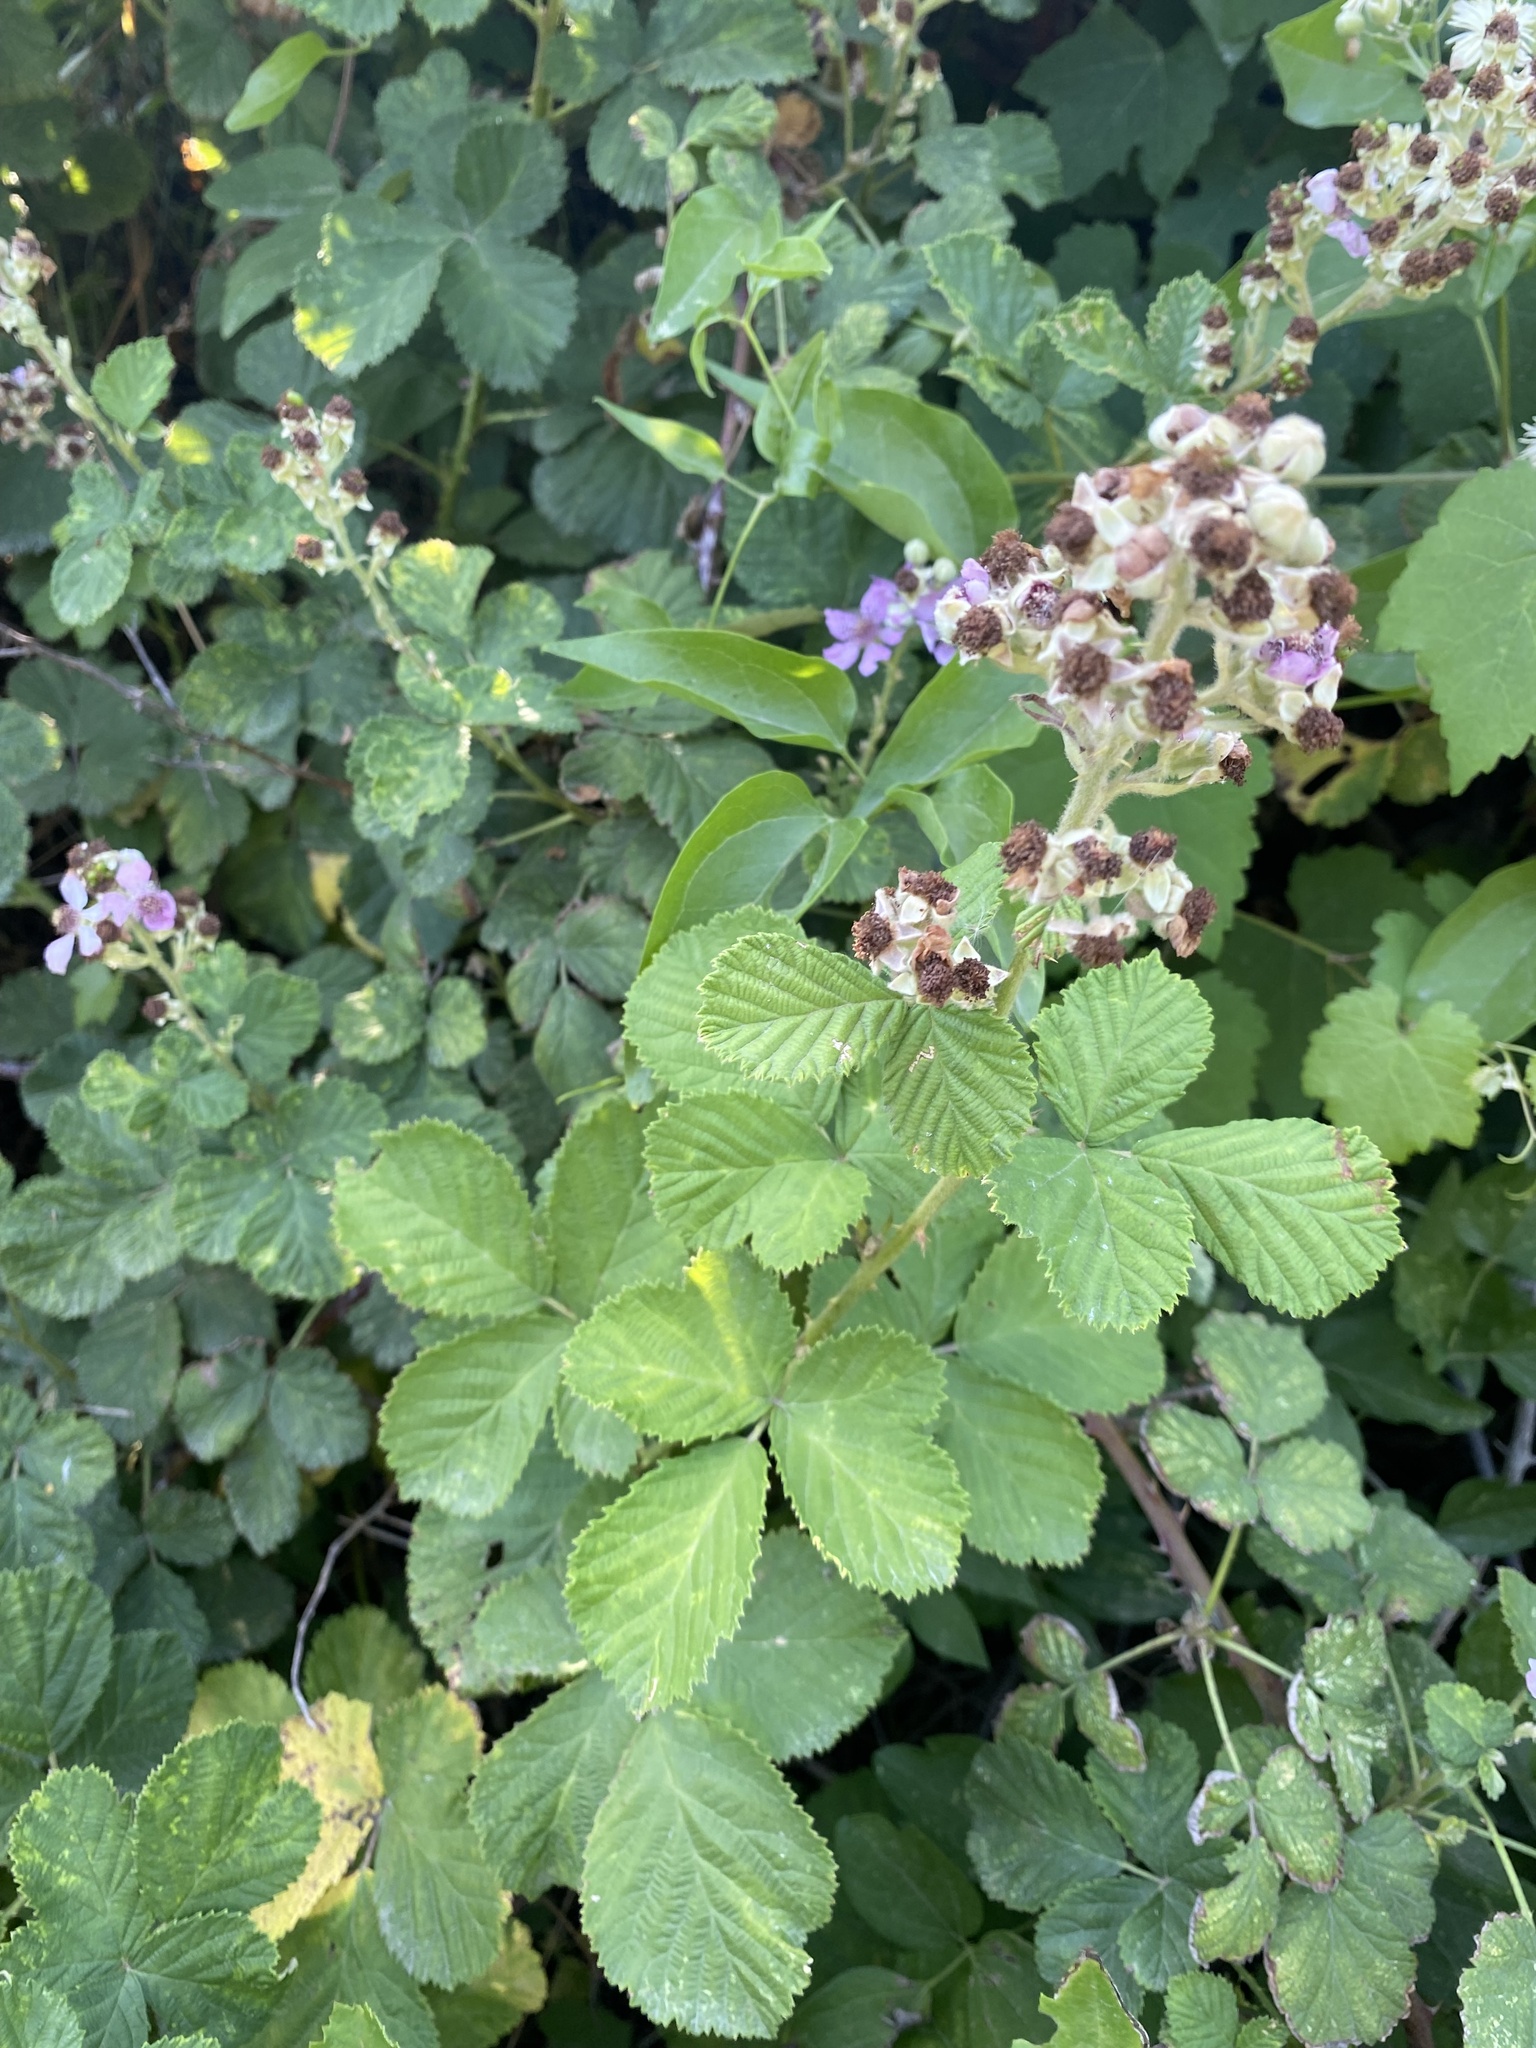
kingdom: Plantae
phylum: Tracheophyta
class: Magnoliopsida
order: Rosales
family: Rosaceae
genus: Rubus
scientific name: Rubus sanctus
